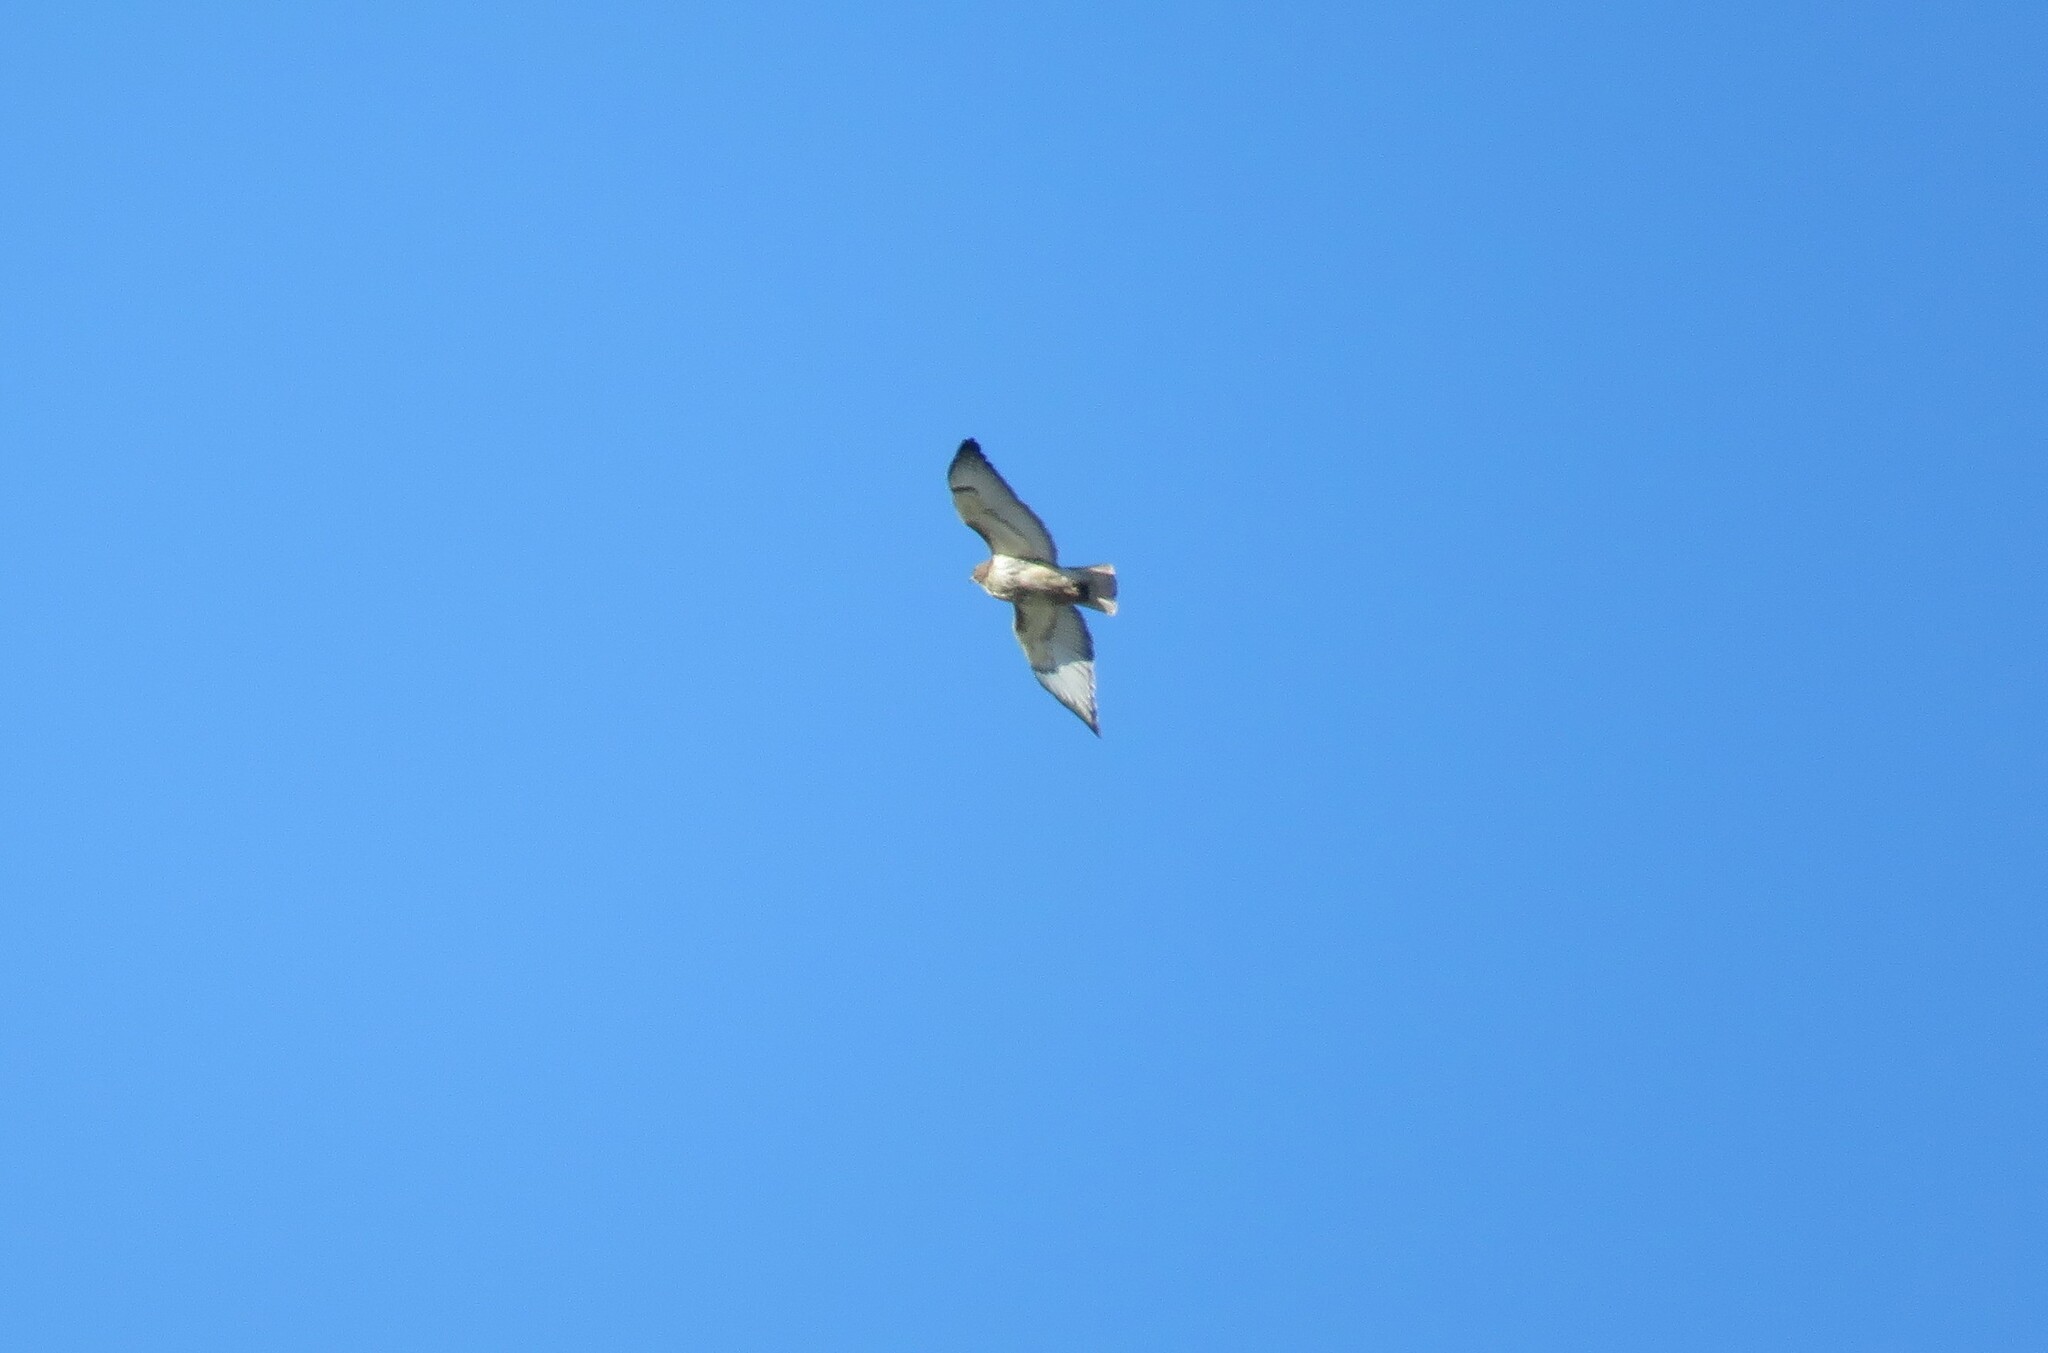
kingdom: Animalia
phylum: Chordata
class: Aves
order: Accipitriformes
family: Accipitridae
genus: Buteo
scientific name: Buteo jamaicensis
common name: Red-tailed hawk
